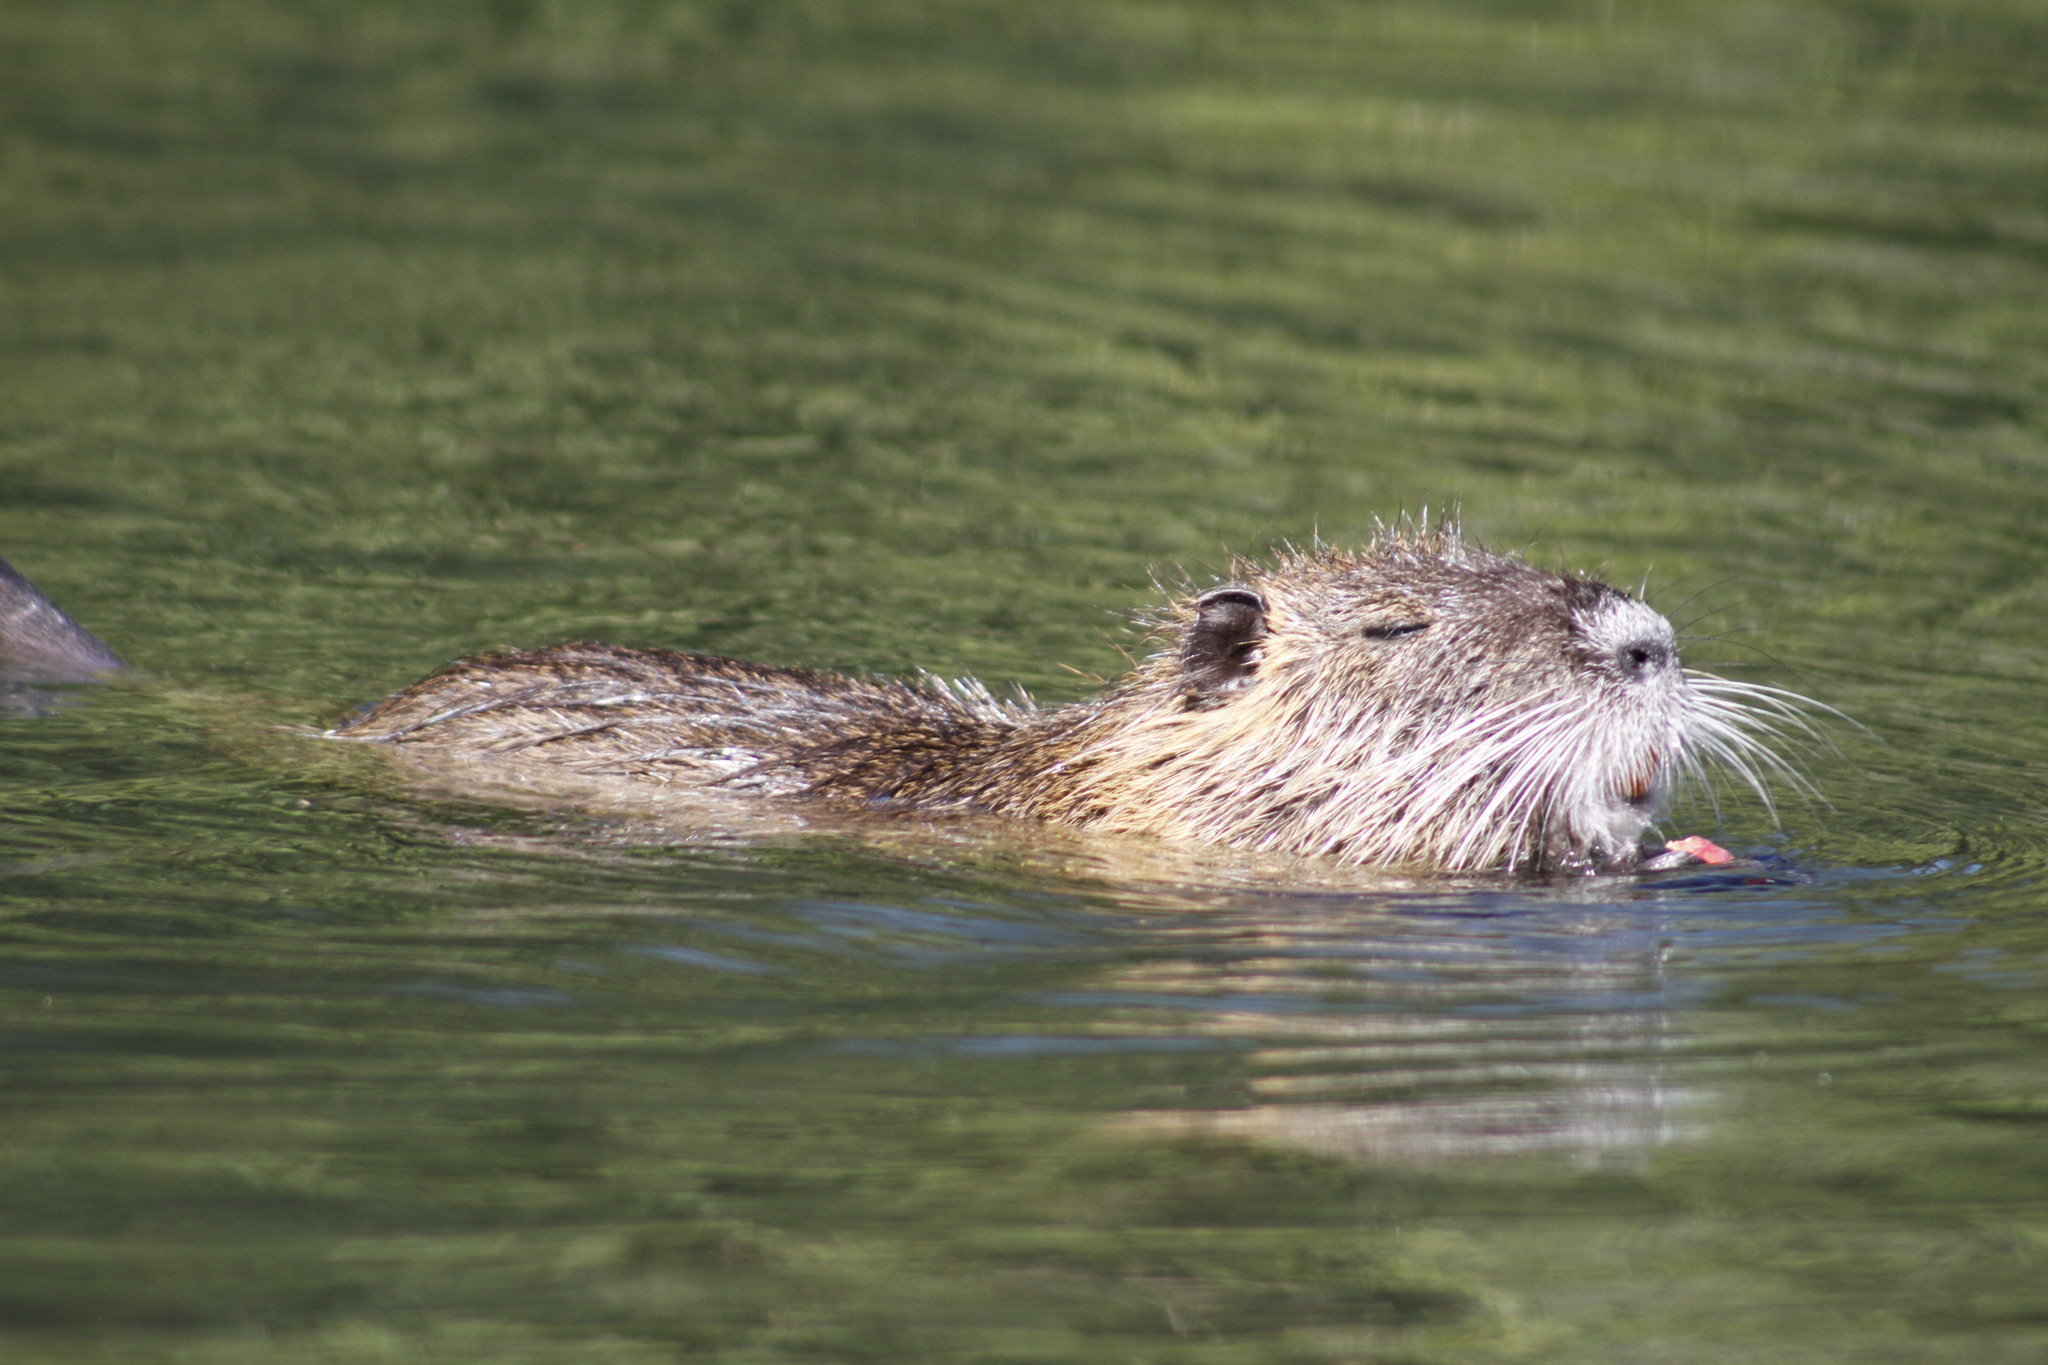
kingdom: Animalia
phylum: Chordata
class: Mammalia
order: Rodentia
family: Myocastoridae
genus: Myocastor
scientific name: Myocastor coypus
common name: Coypu
